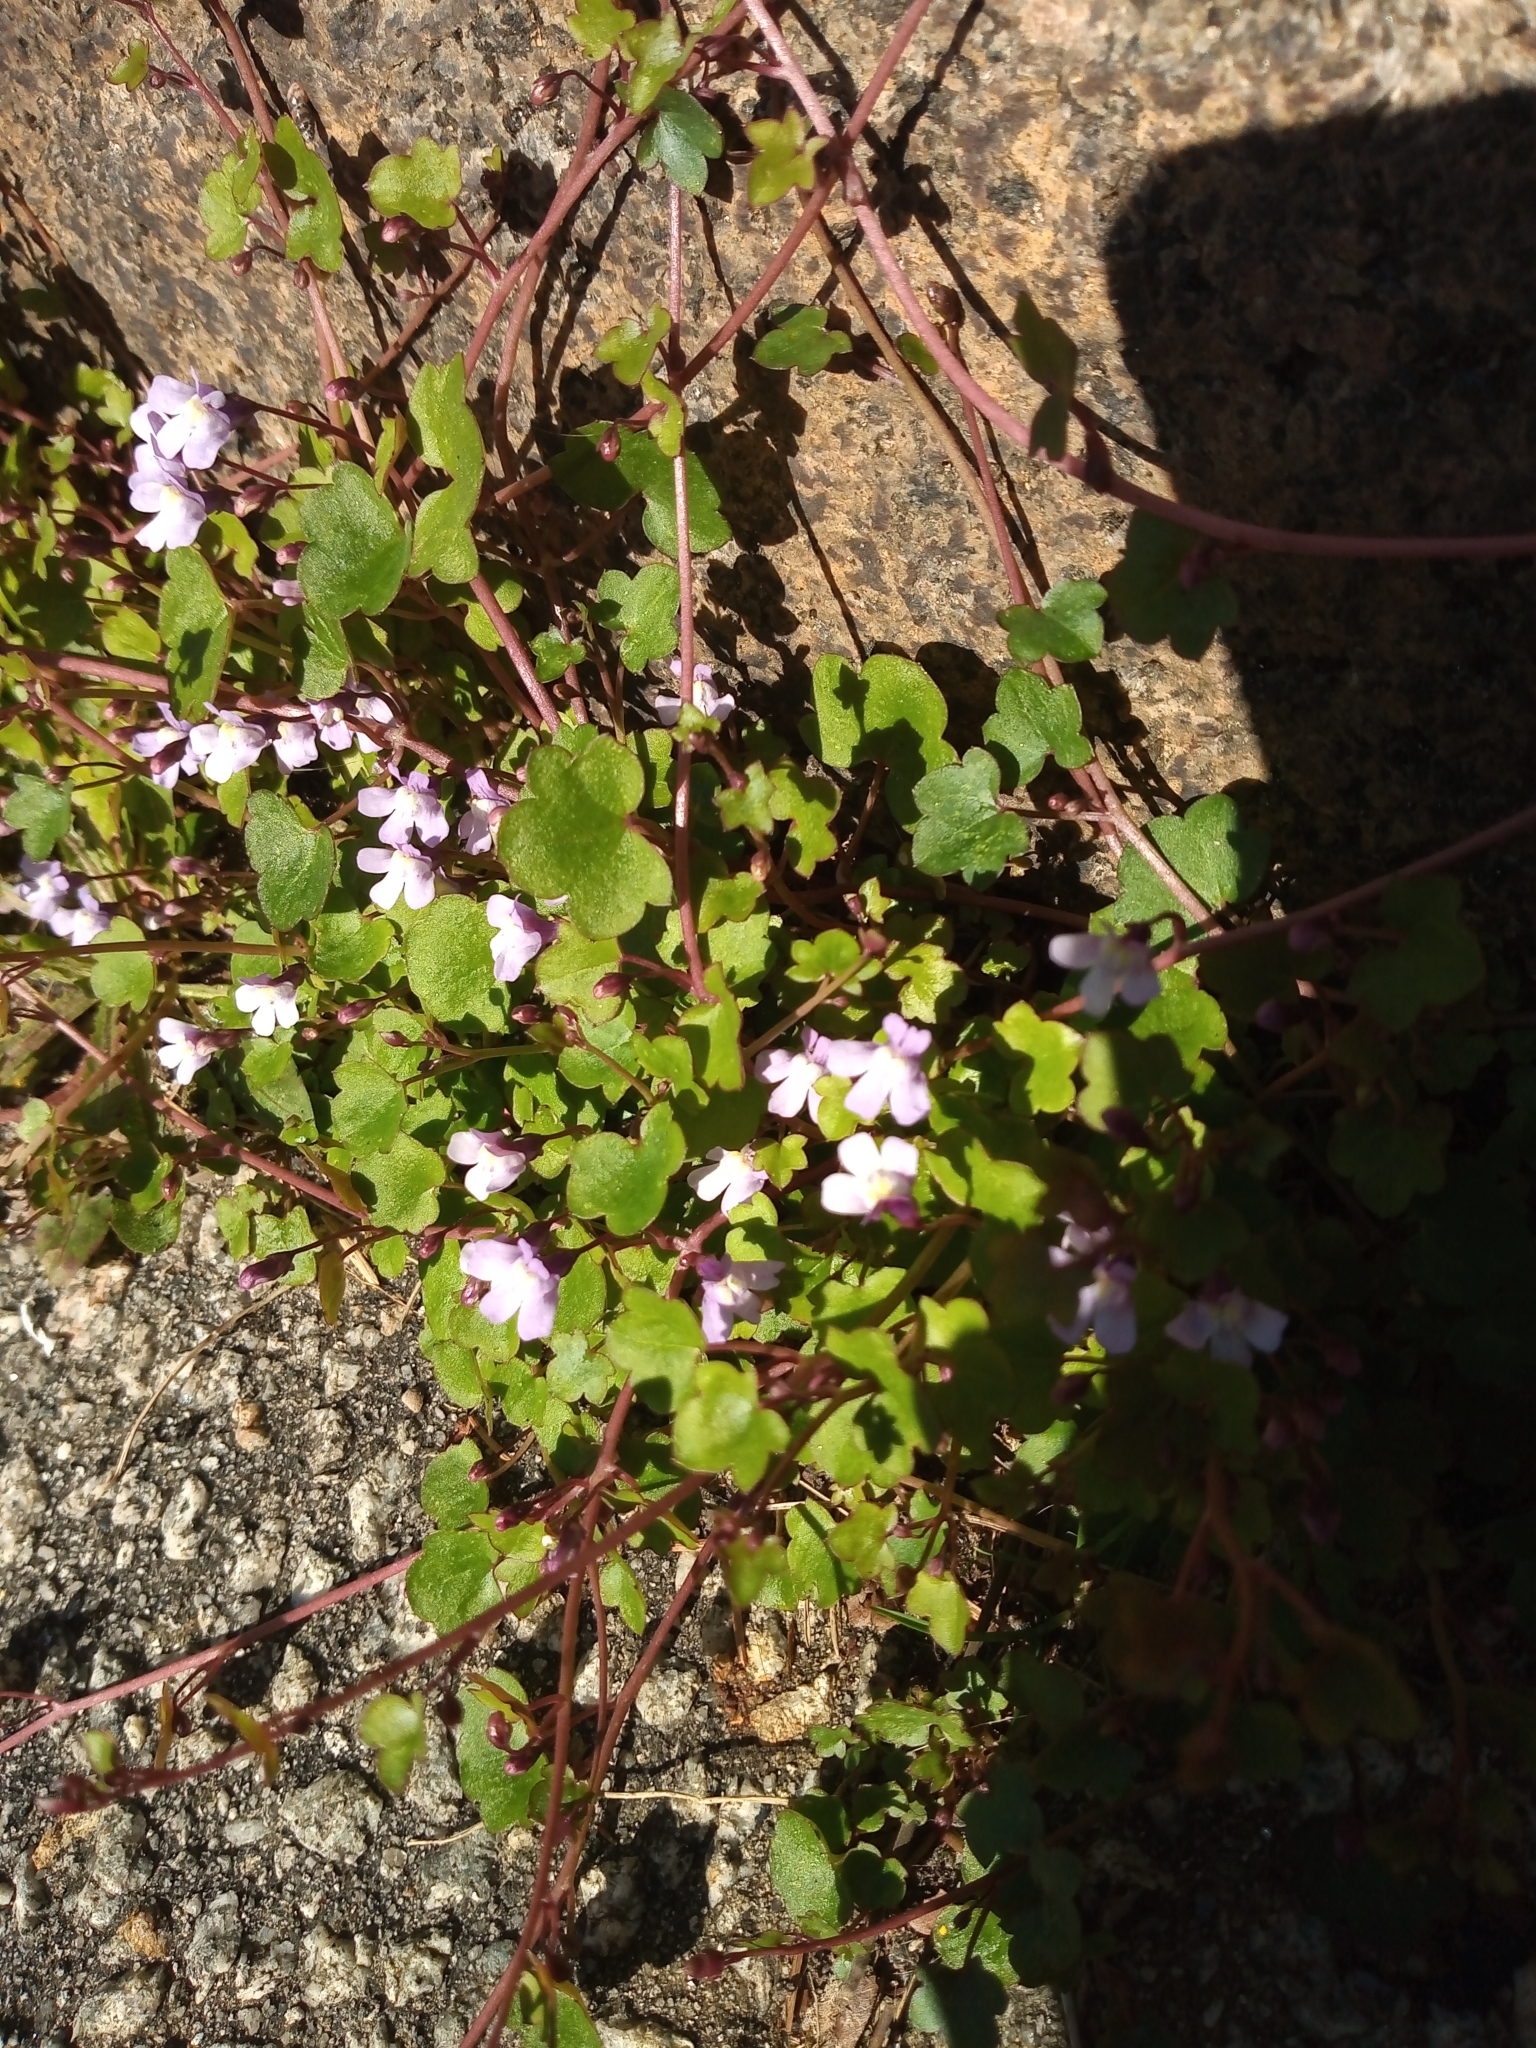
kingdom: Plantae
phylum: Tracheophyta
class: Magnoliopsida
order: Lamiales
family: Plantaginaceae
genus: Cymbalaria
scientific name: Cymbalaria muralis
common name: Ivy-leaved toadflax
